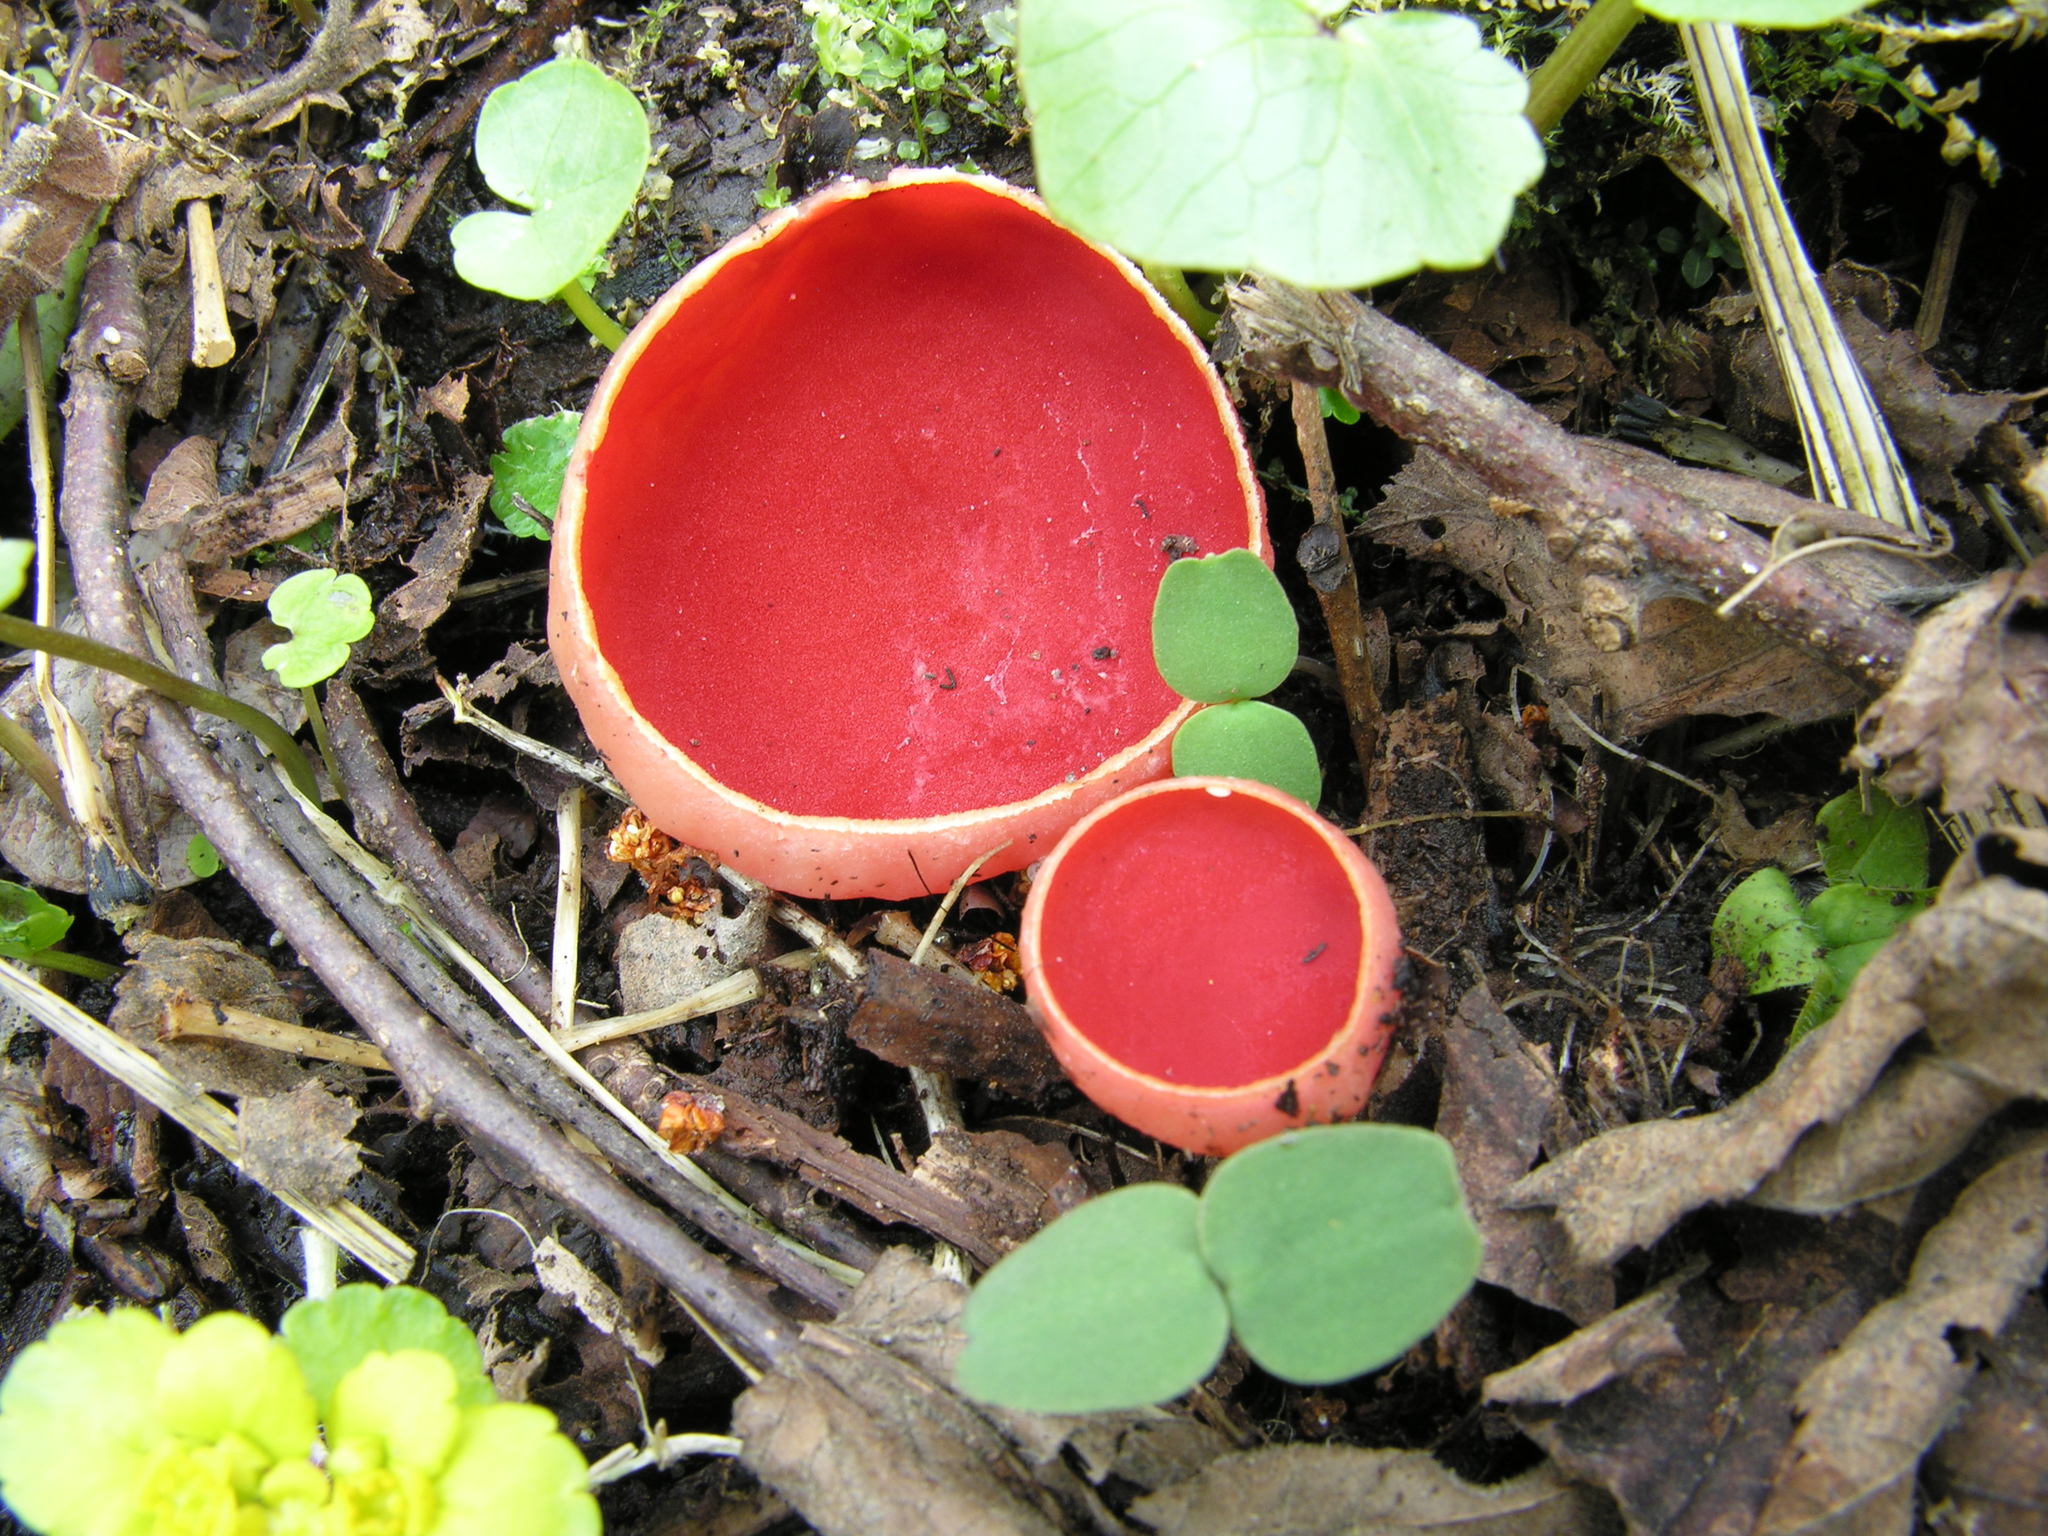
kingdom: Fungi
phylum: Ascomycota
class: Pezizomycetes
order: Pezizales
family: Sarcoscyphaceae
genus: Sarcoscypha
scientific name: Sarcoscypha austriaca
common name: Scarlet elfcup
